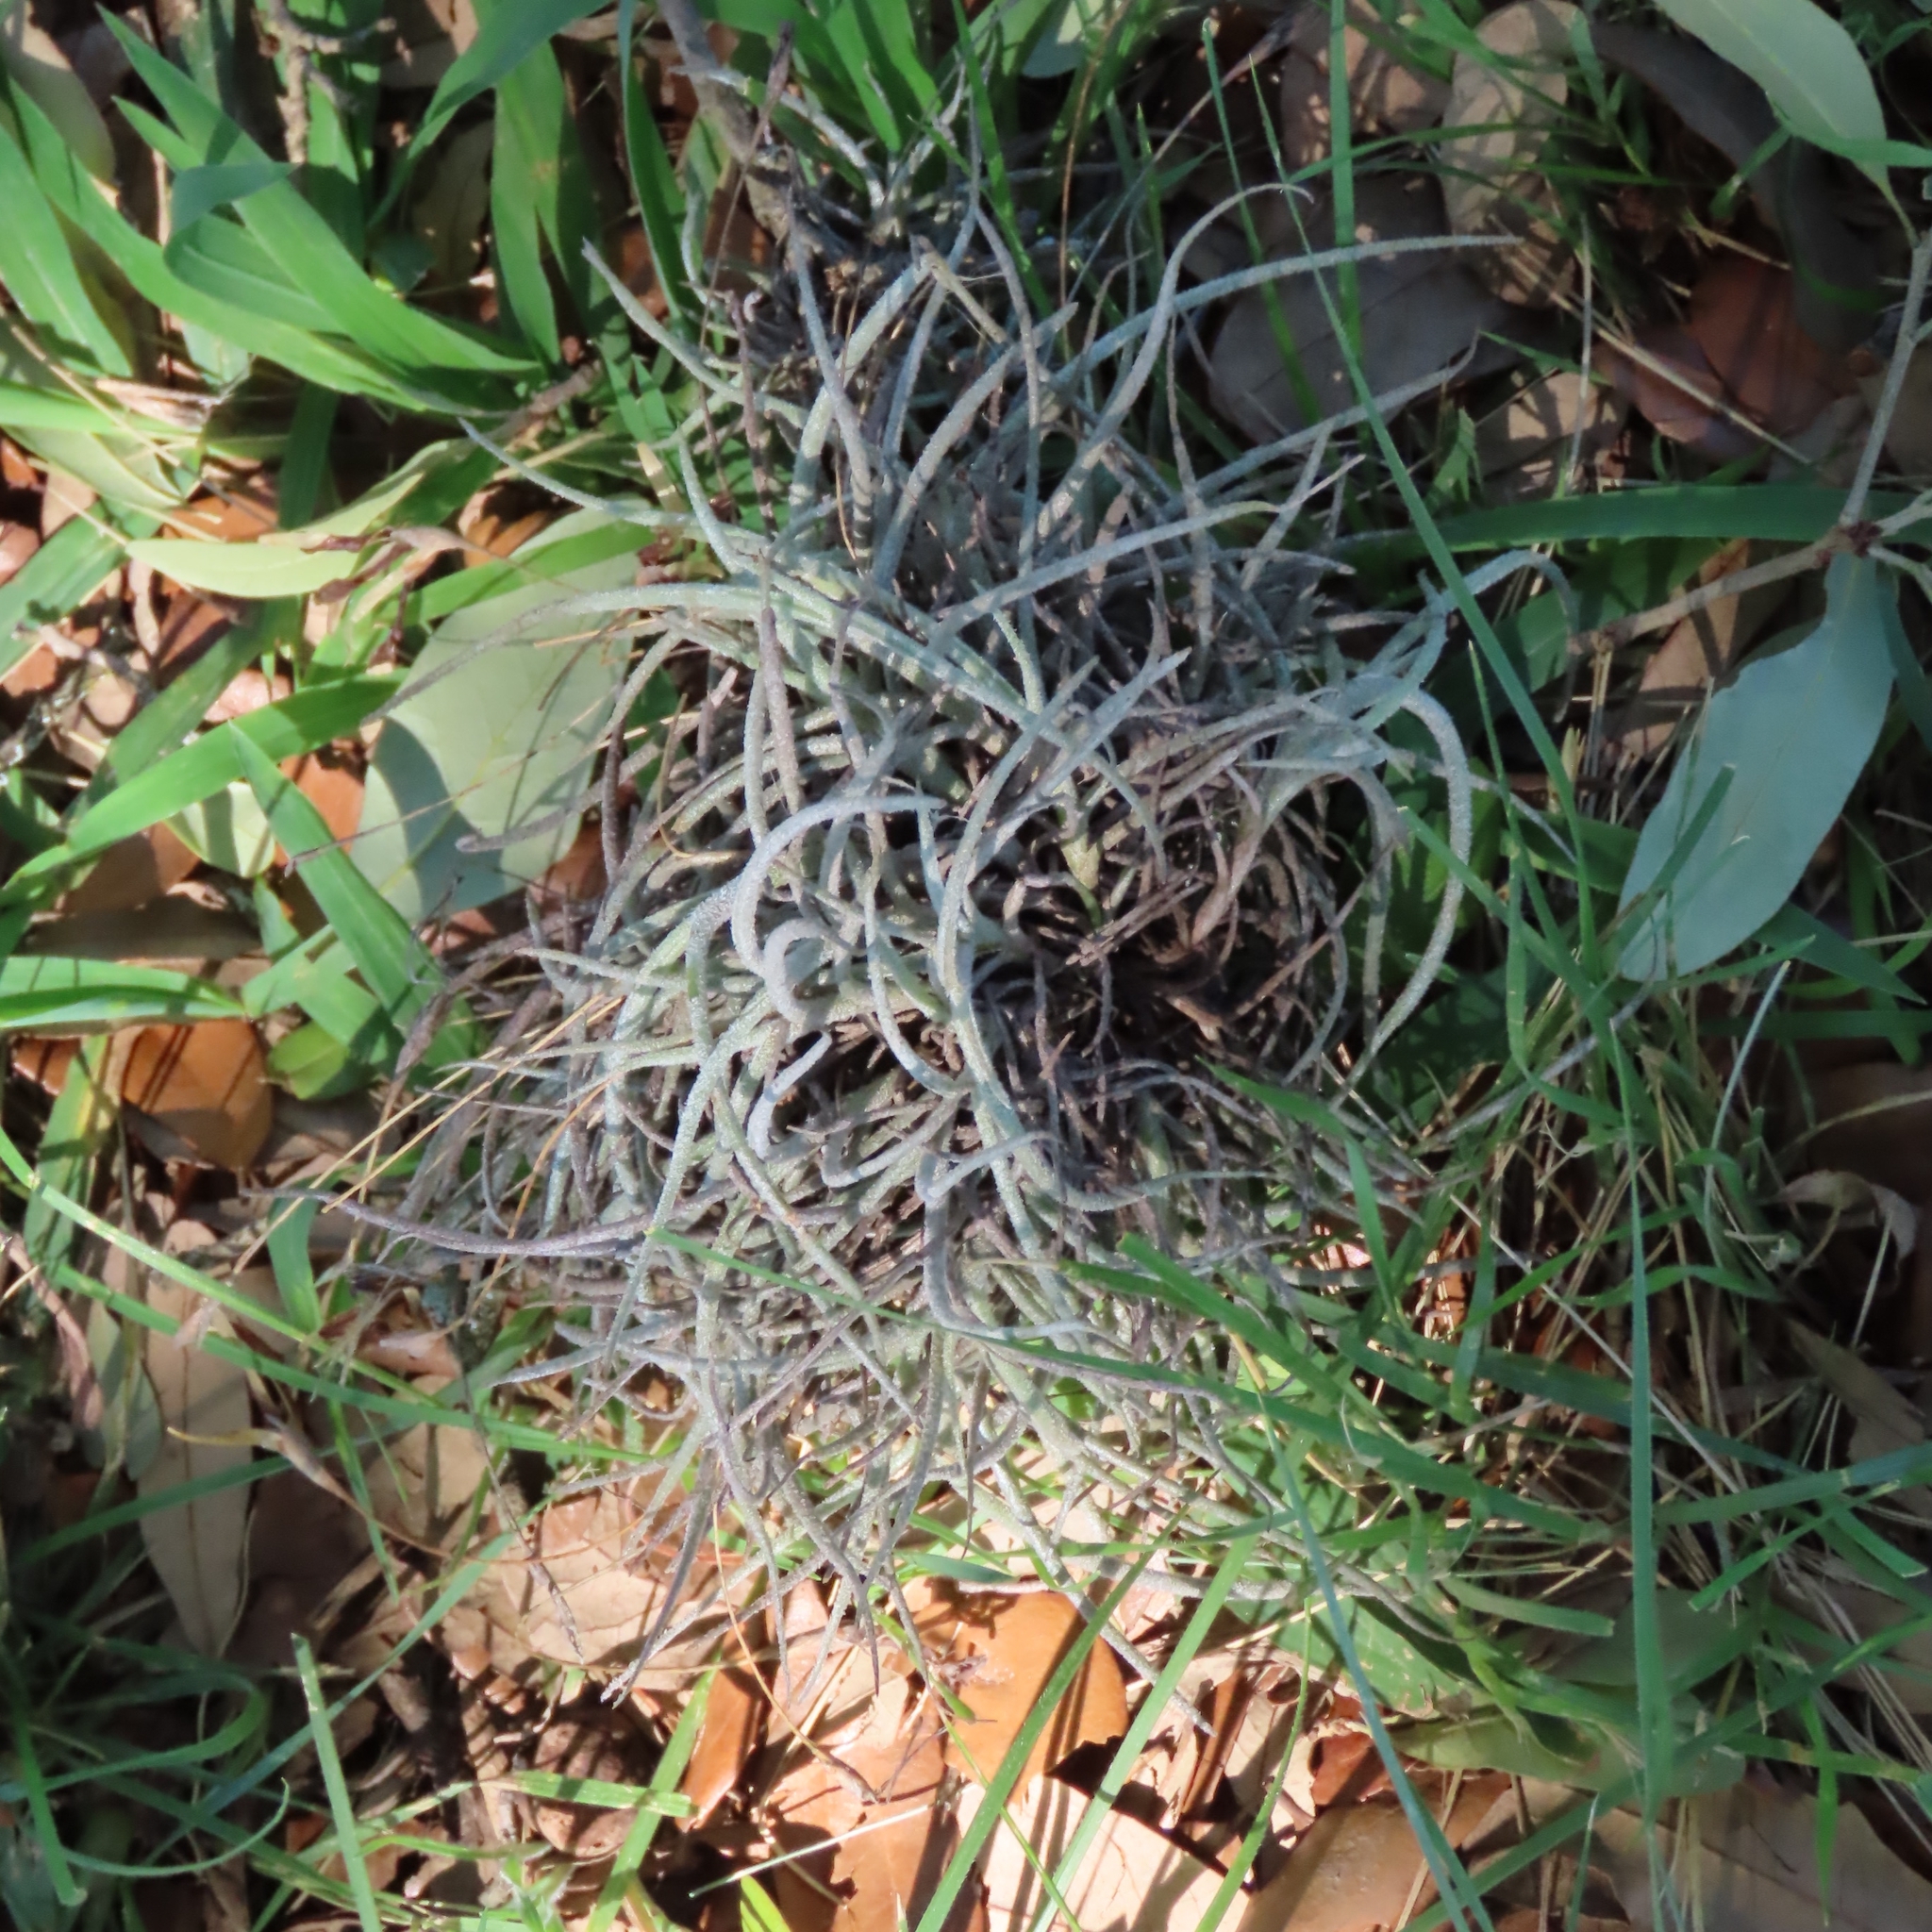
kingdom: Plantae
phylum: Tracheophyta
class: Liliopsida
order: Poales
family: Bromeliaceae
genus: Tillandsia
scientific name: Tillandsia recurvata
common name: Small ballmoss
